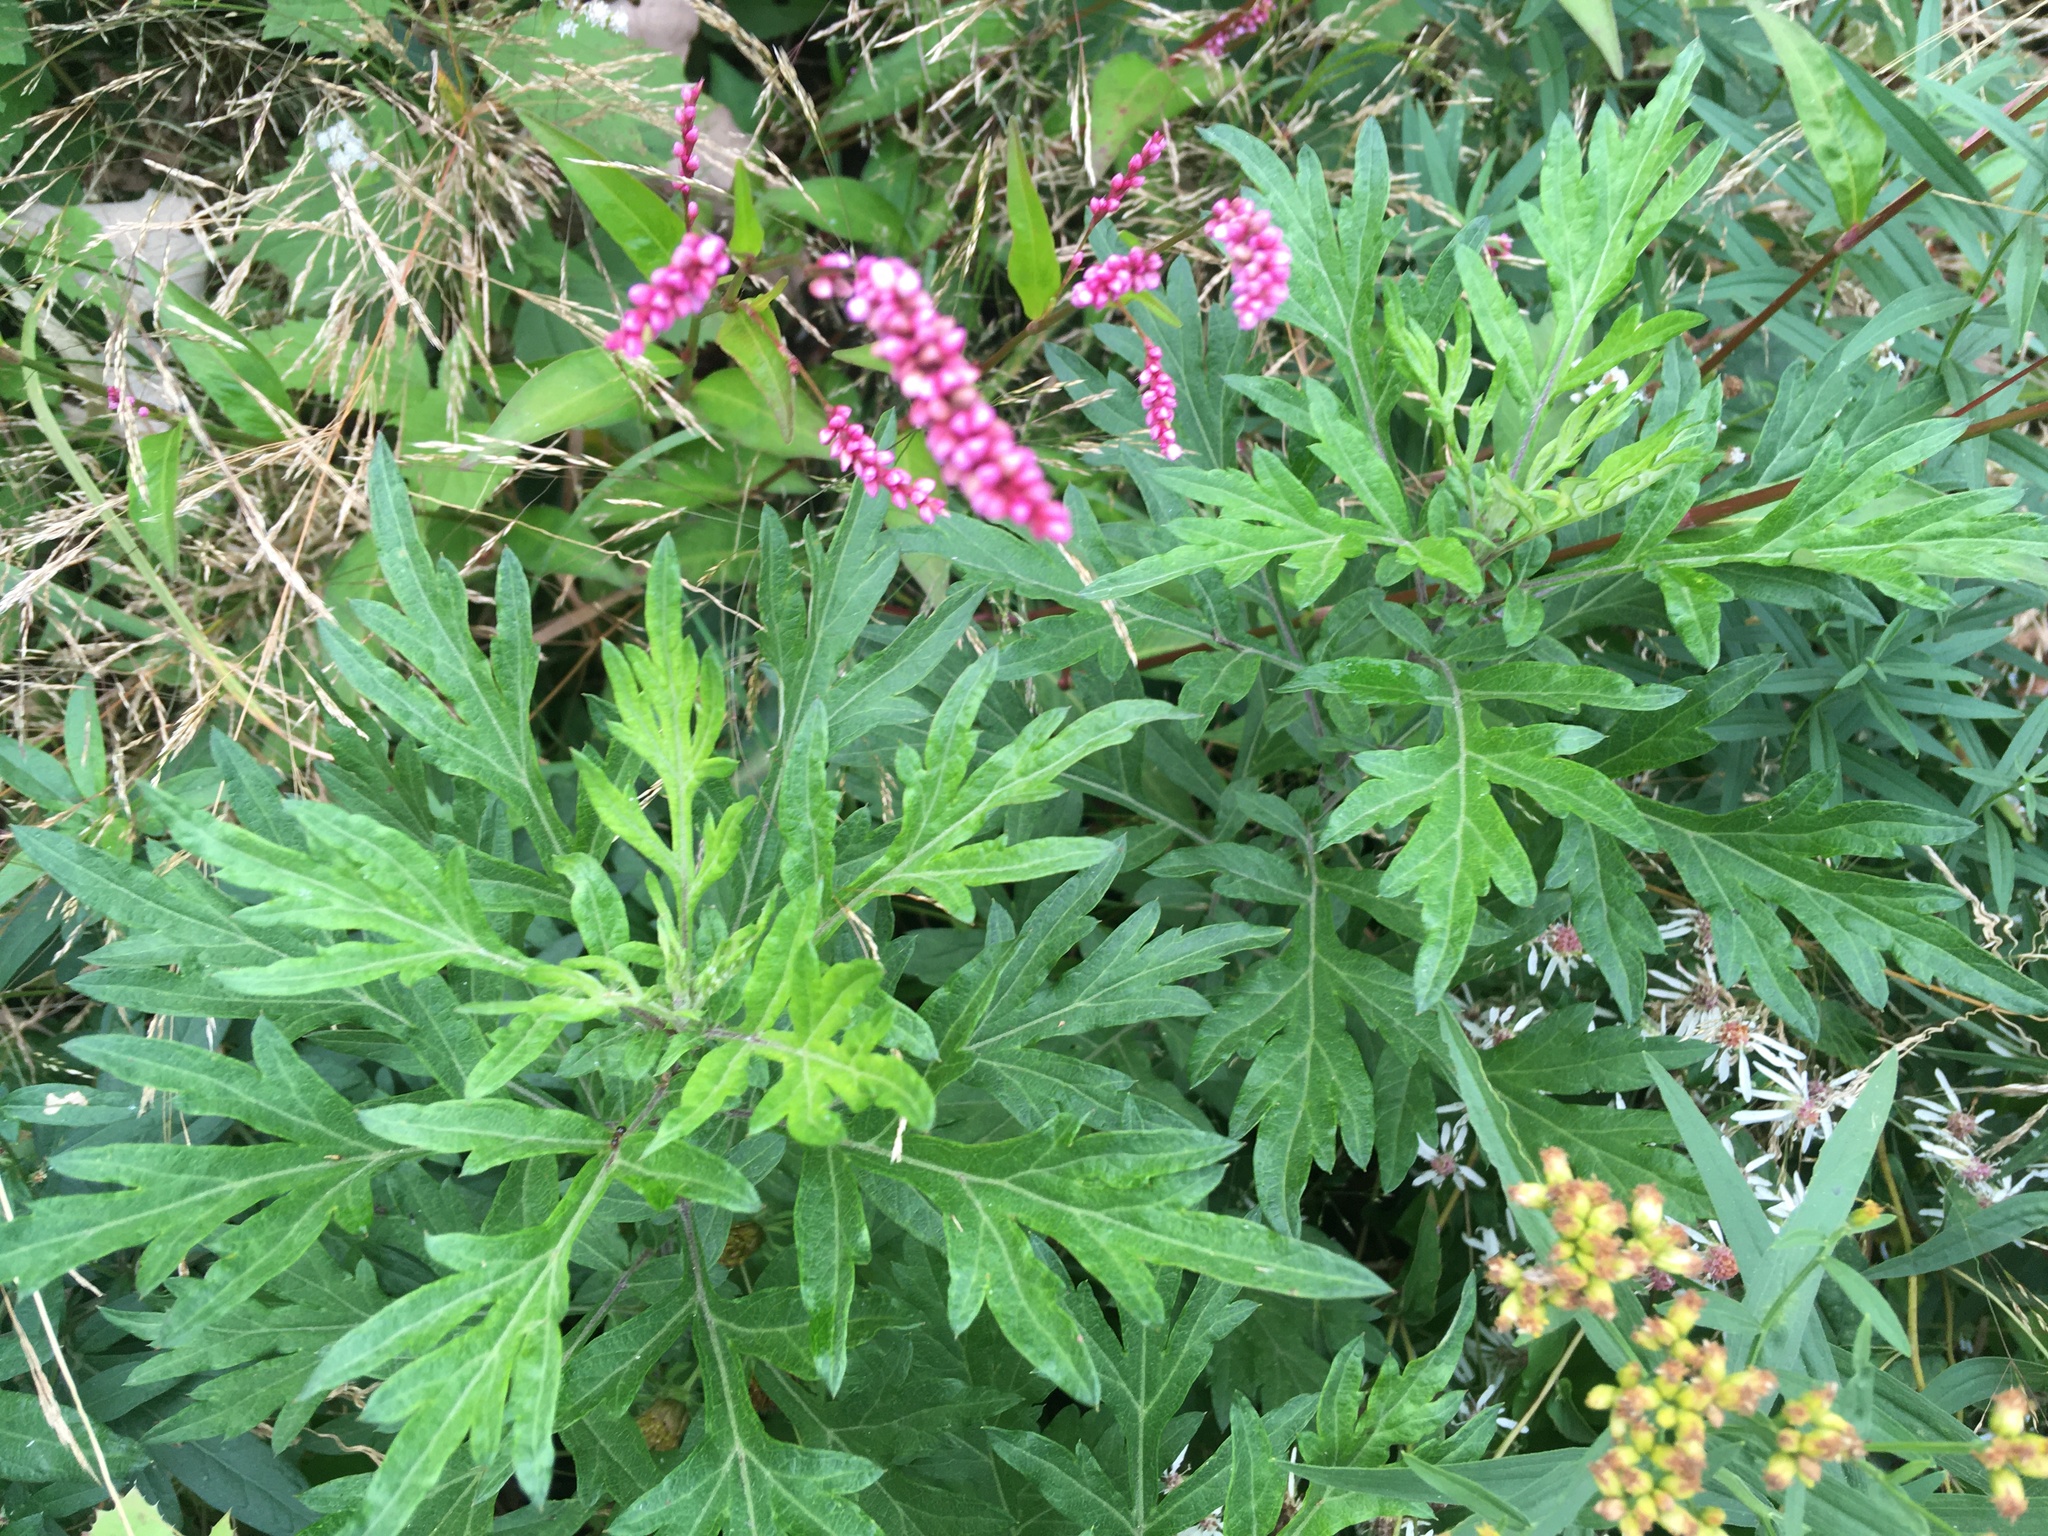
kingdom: Plantae
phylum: Tracheophyta
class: Magnoliopsida
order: Asterales
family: Asteraceae
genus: Artemisia
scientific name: Artemisia vulgaris
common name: Mugwort
